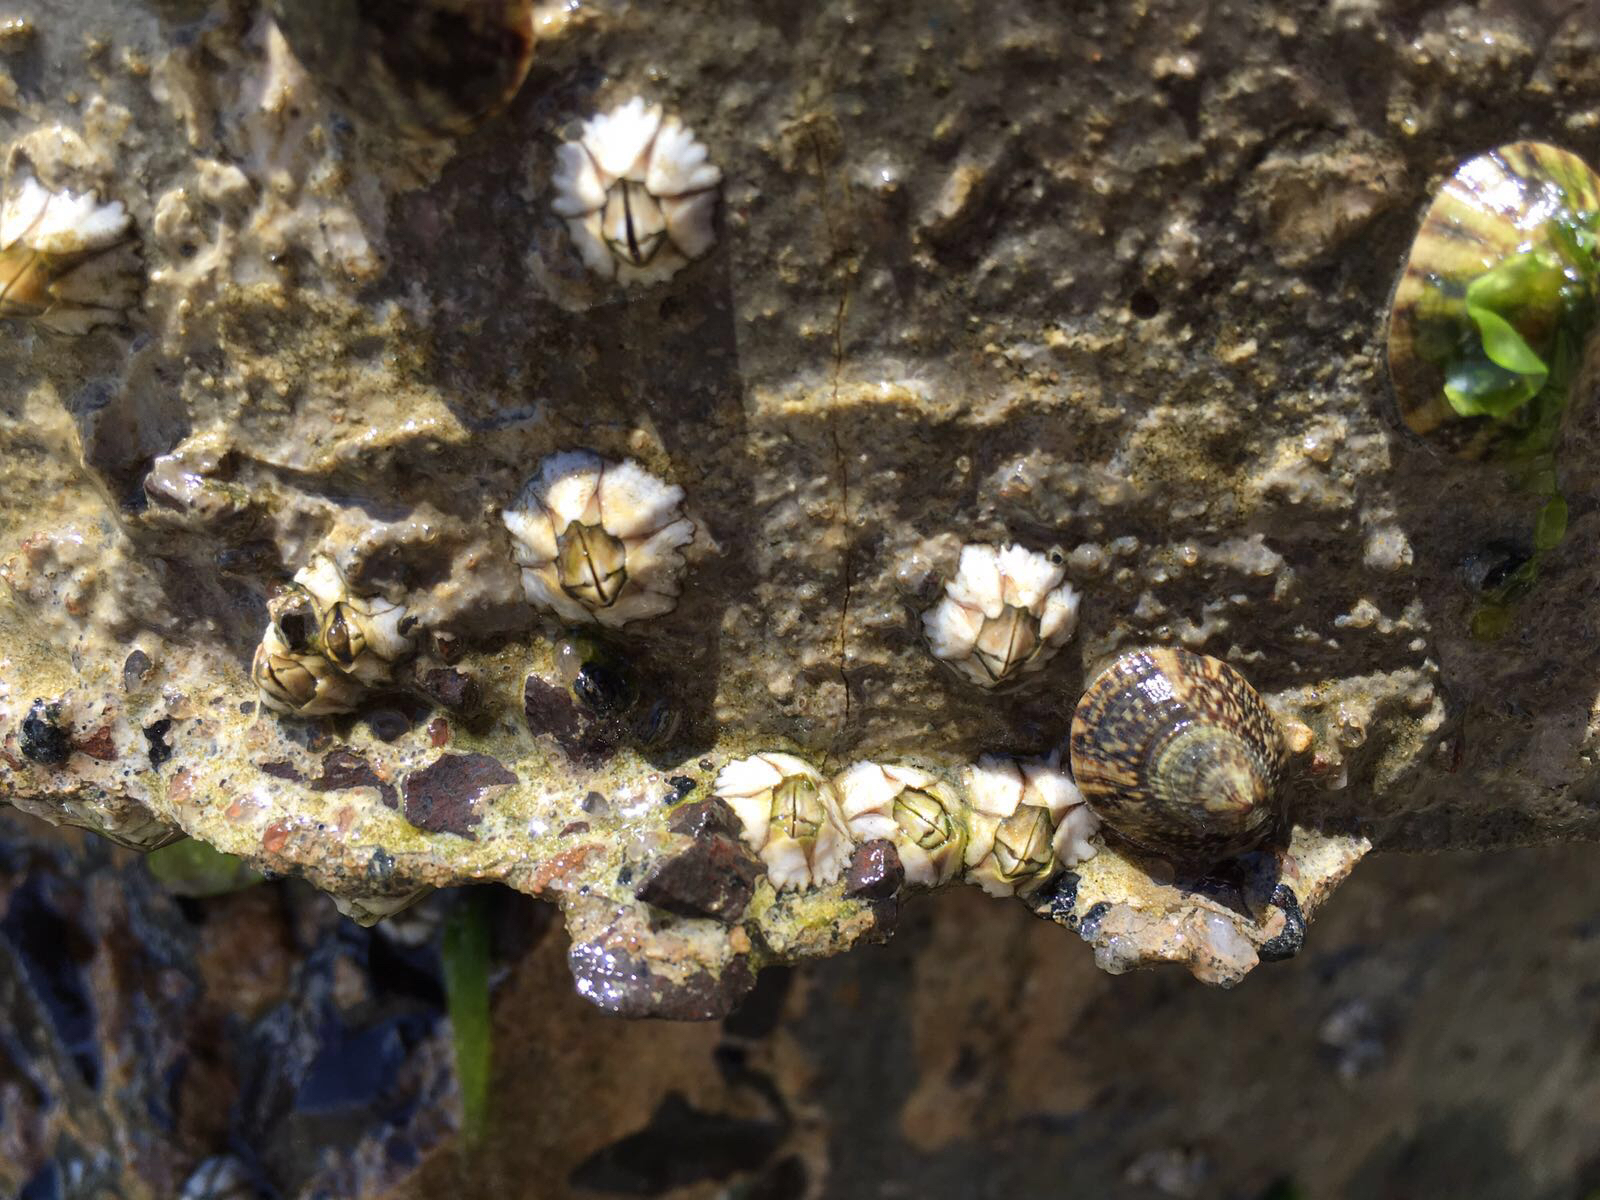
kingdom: Animalia
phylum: Arthropoda
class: Maxillopoda
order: Sessilia
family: Chthamalidae
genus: Chthamalus
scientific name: Chthamalus proteus
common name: Caribbean barnacle
